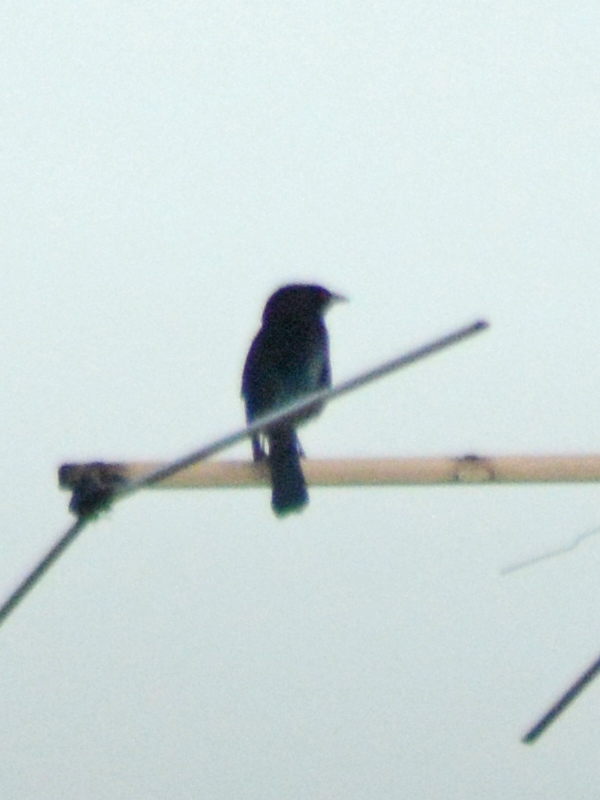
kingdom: Animalia
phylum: Chordata
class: Aves
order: Passeriformes
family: Icteridae
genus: Molothrus
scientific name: Molothrus aeneus
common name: Bronzed cowbird
